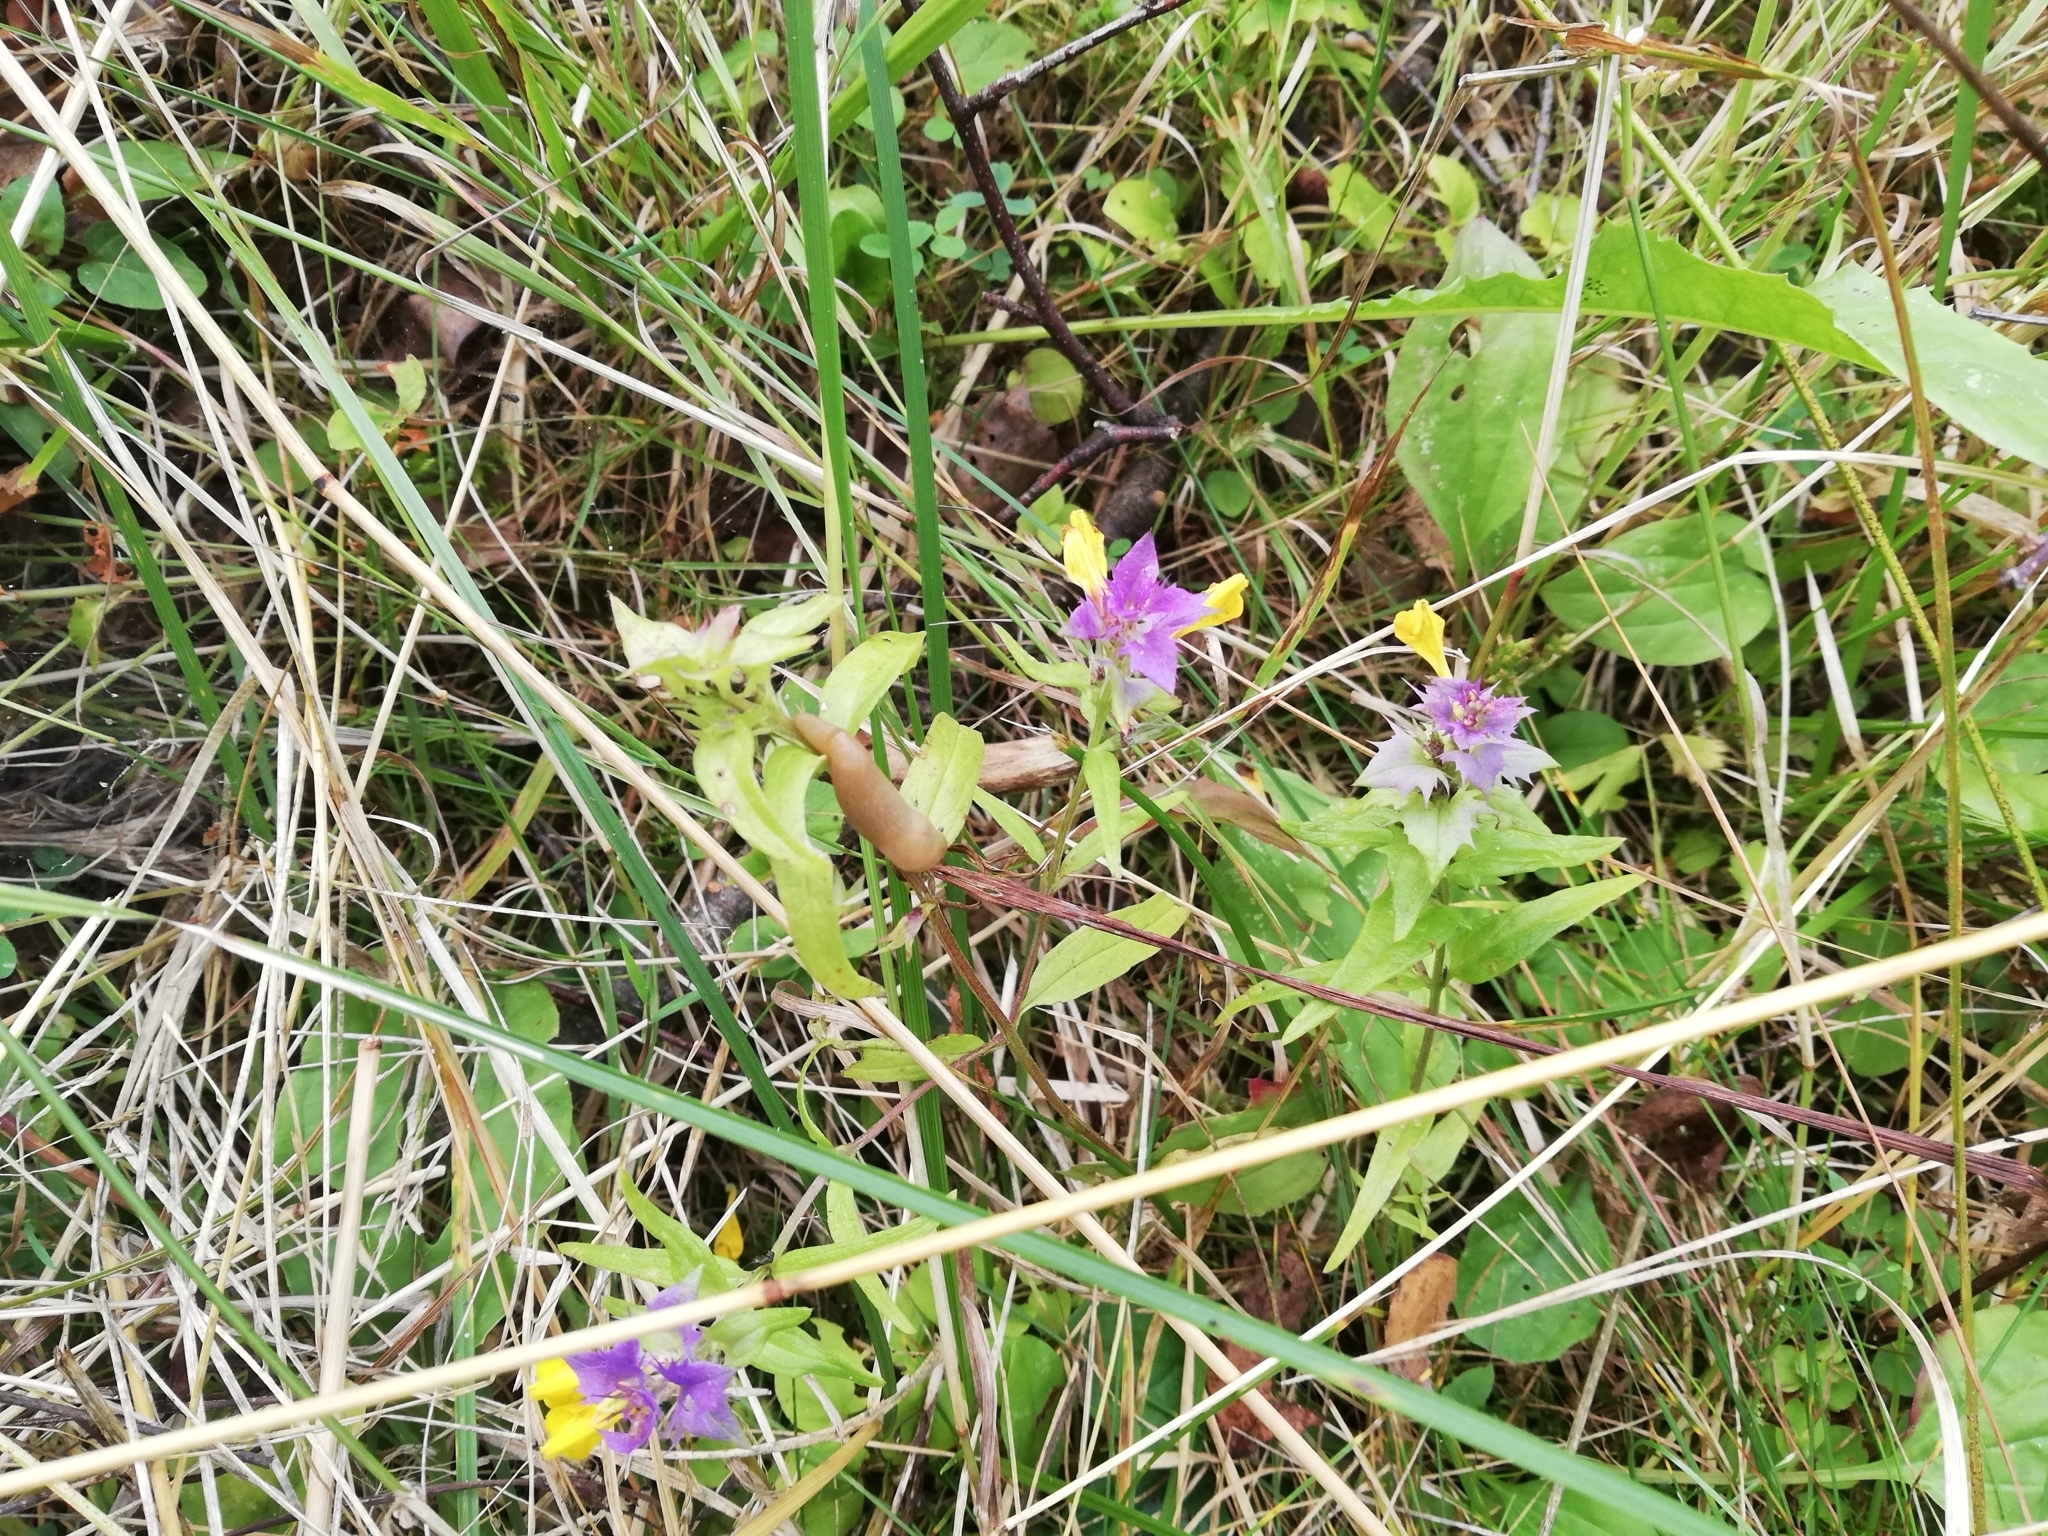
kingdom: Plantae
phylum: Tracheophyta
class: Magnoliopsida
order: Lamiales
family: Orobanchaceae
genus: Melampyrum
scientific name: Melampyrum nemorosum
